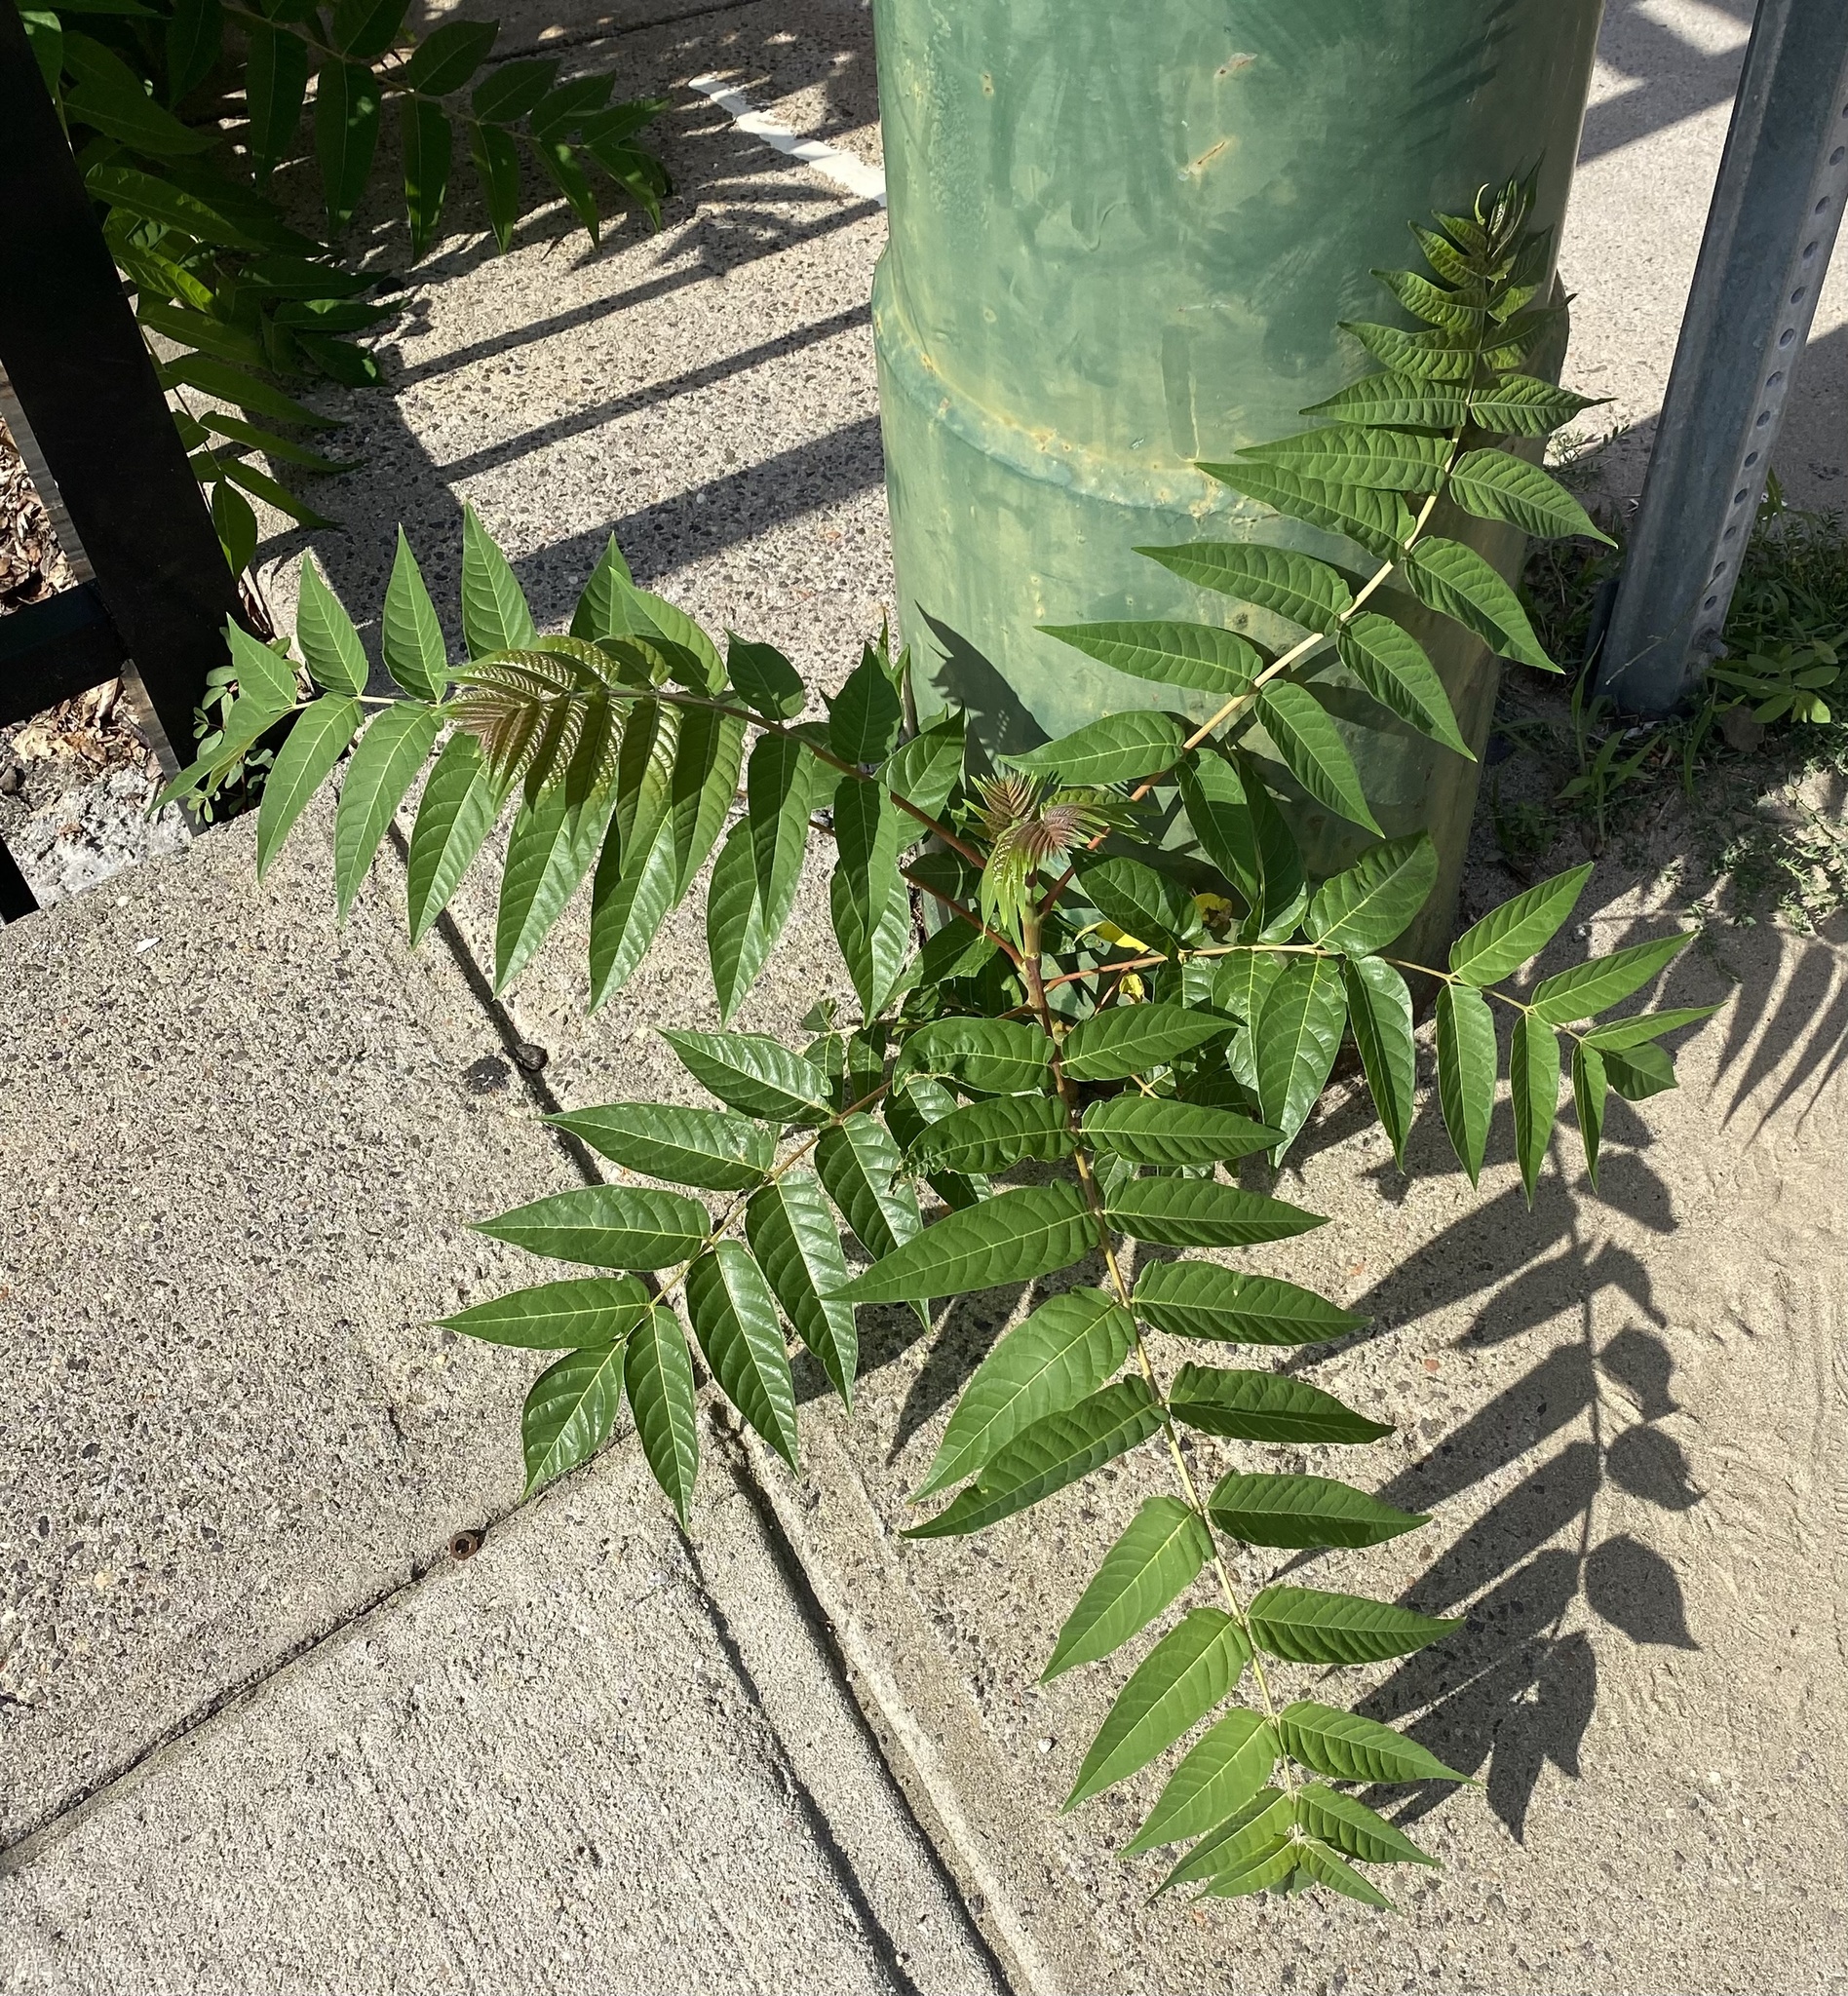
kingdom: Plantae
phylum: Tracheophyta
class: Magnoliopsida
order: Sapindales
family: Simaroubaceae
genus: Ailanthus
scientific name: Ailanthus altissima
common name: Tree-of-heaven
